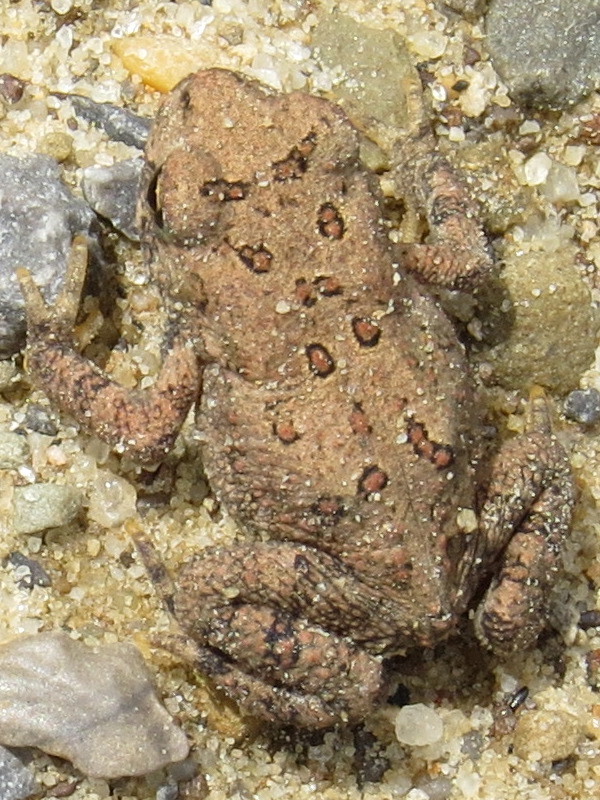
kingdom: Animalia
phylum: Chordata
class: Amphibia
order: Anura
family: Bufonidae
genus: Anaxyrus
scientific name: Anaxyrus americanus
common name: American toad
